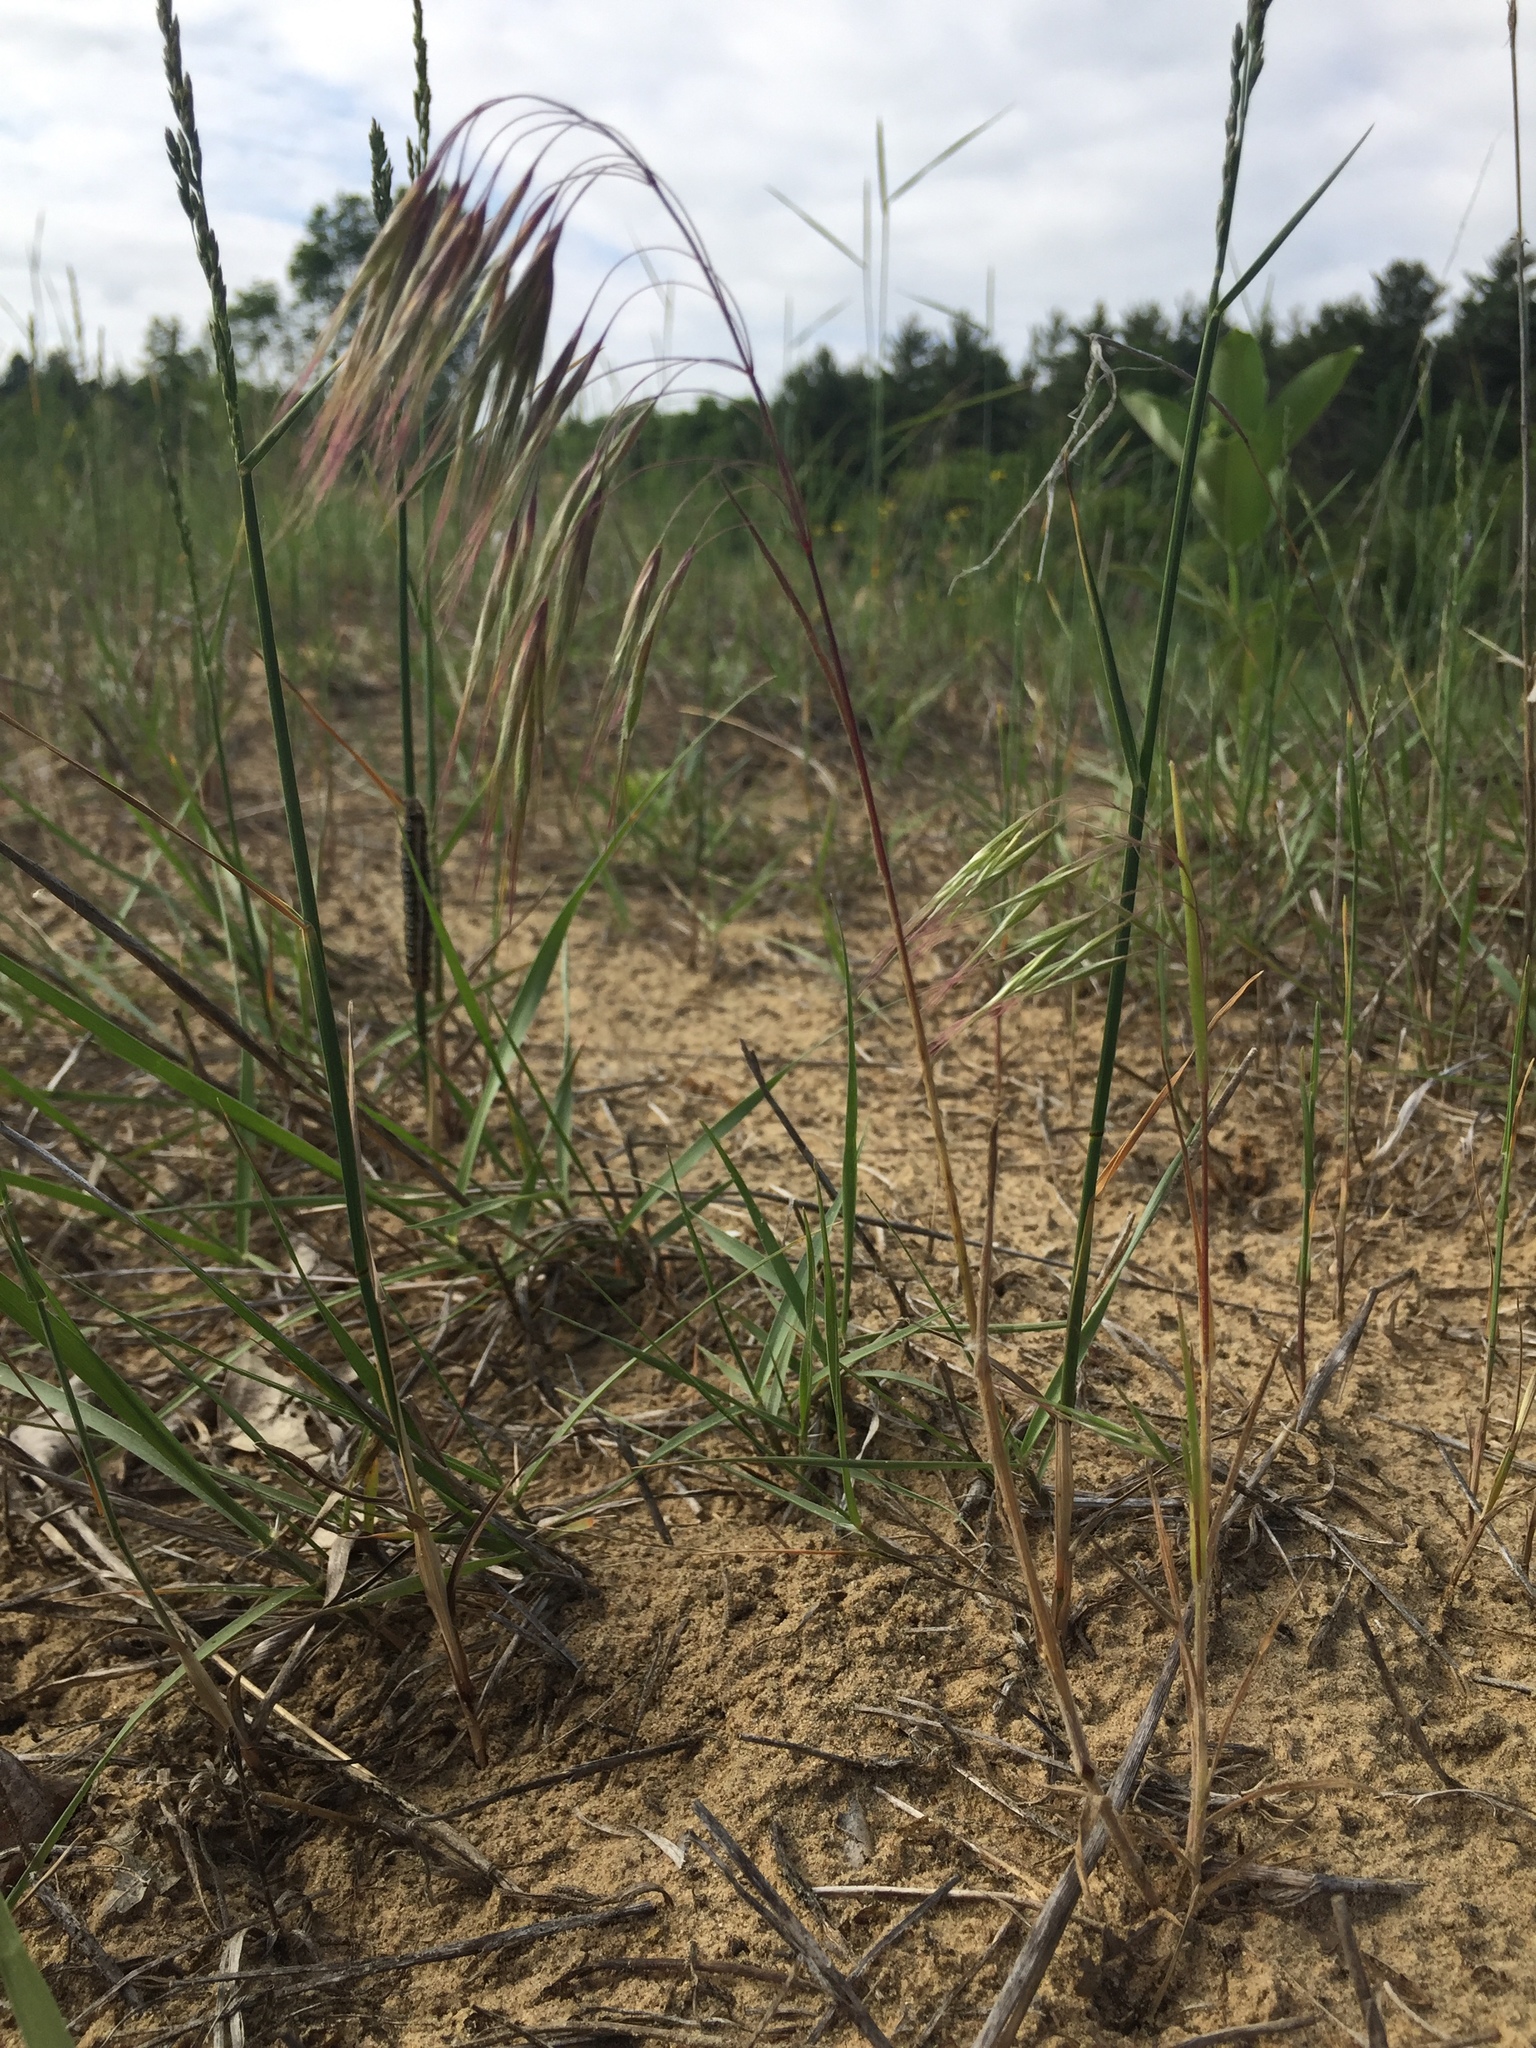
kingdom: Plantae
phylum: Tracheophyta
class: Liliopsida
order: Poales
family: Poaceae
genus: Bromus
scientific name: Bromus tectorum
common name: Cheatgrass
